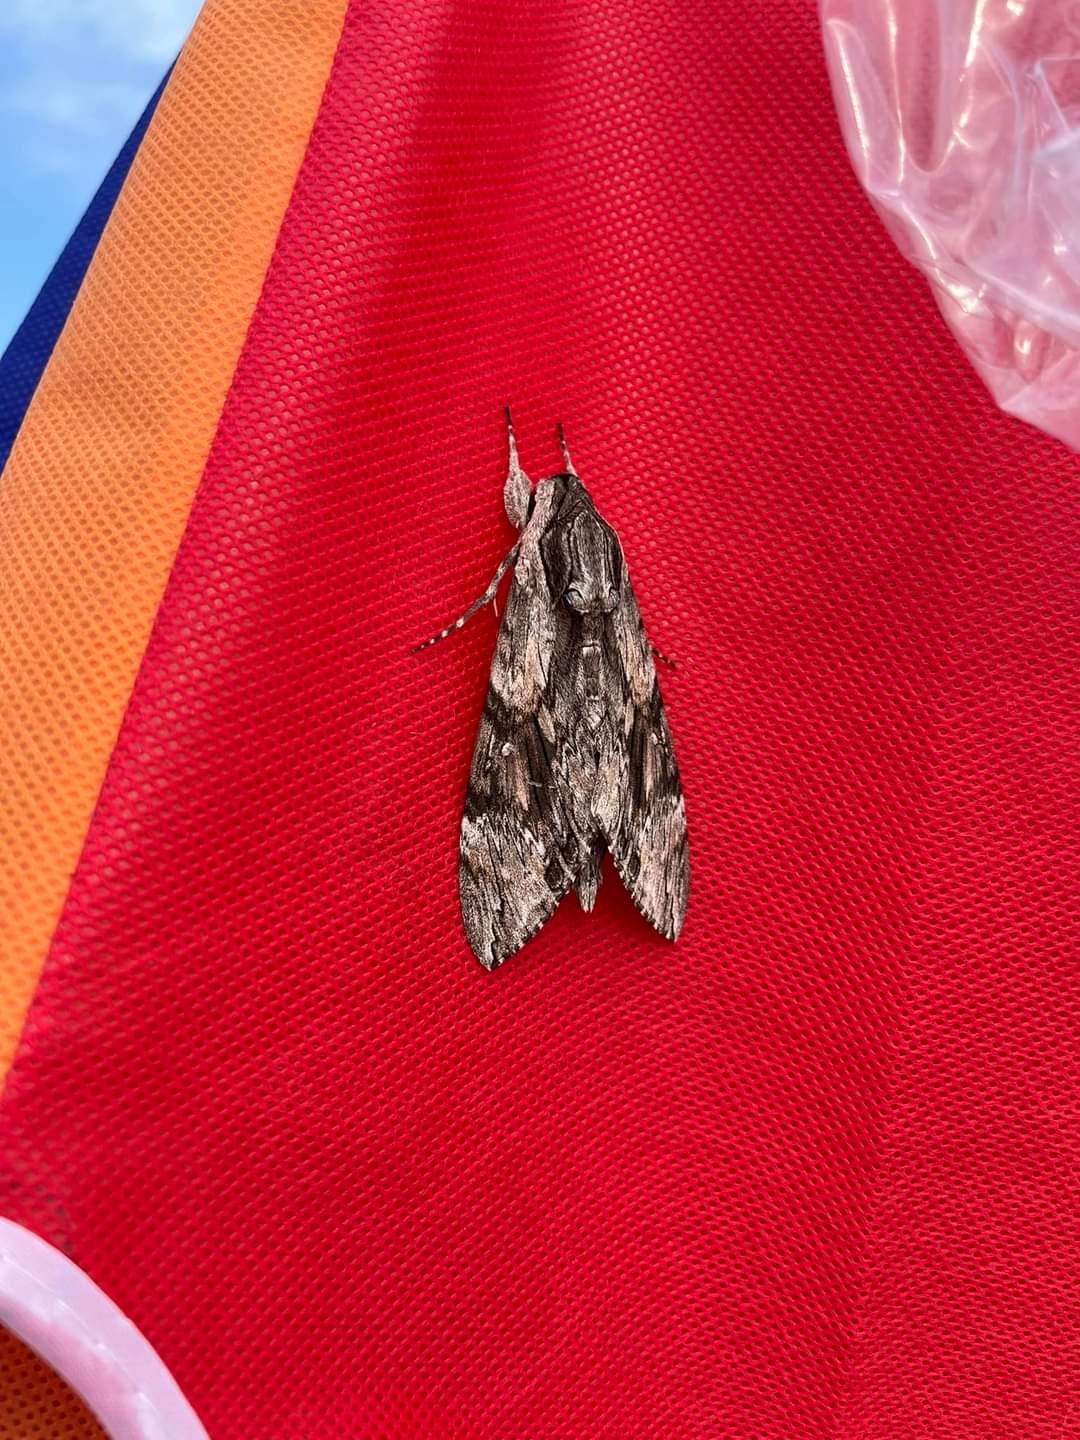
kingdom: Animalia
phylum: Arthropoda
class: Insecta
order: Lepidoptera
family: Sphingidae
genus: Agrius
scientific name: Agrius convolvuli
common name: Convolvulus hawkmoth
